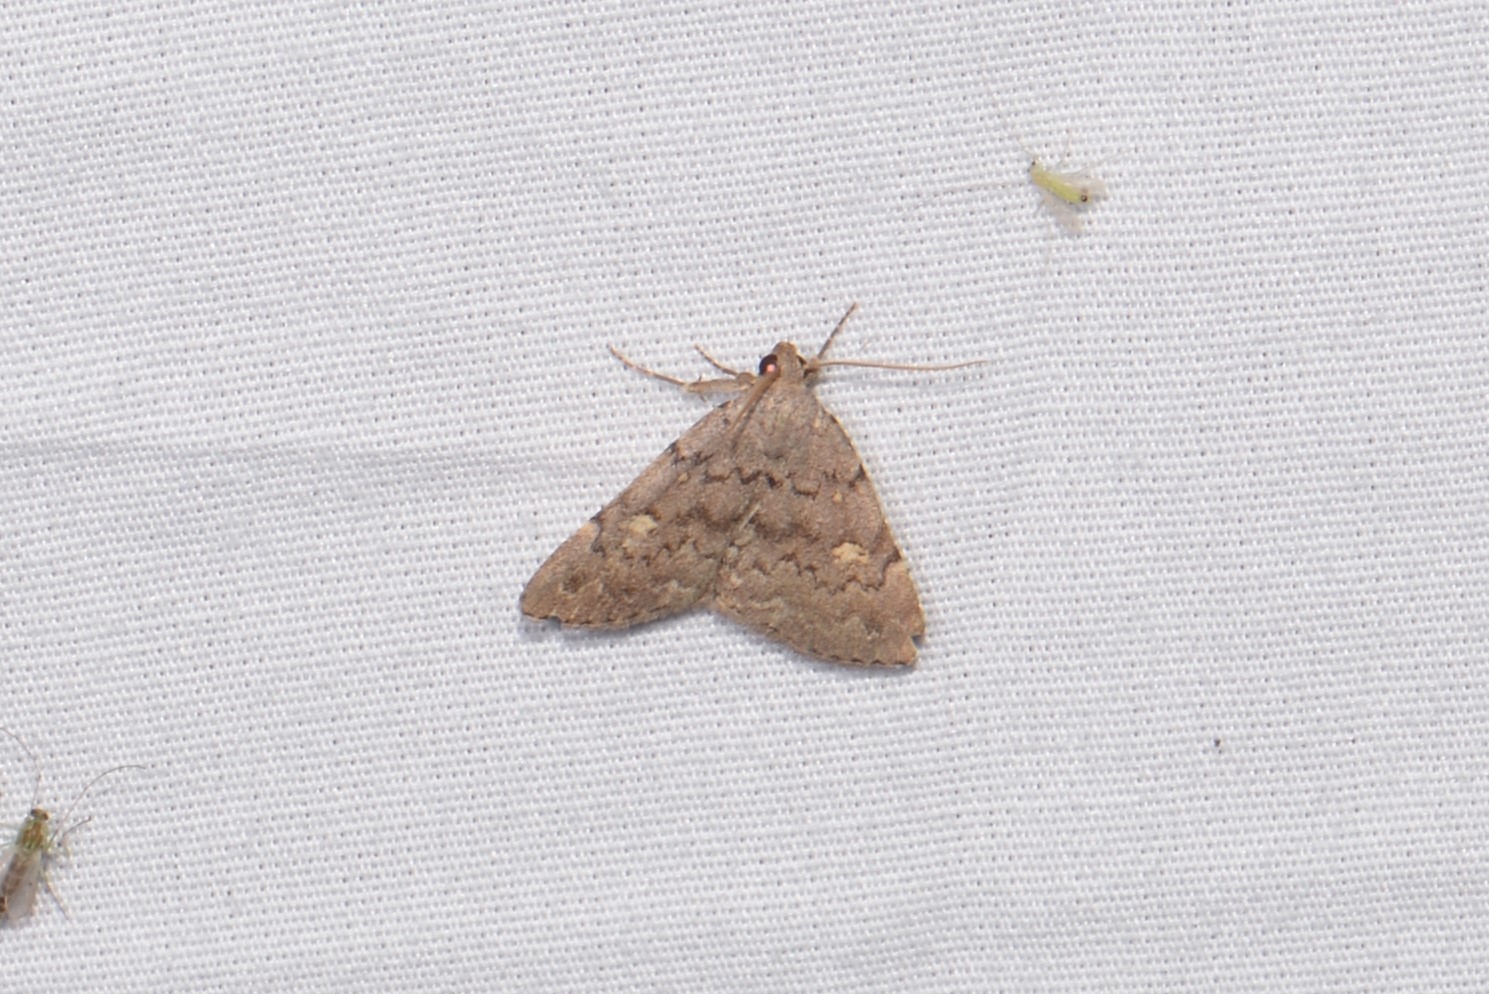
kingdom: Animalia
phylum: Arthropoda
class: Insecta
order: Lepidoptera
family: Erebidae
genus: Idia
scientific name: Idia aemula
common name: Common idia moth
